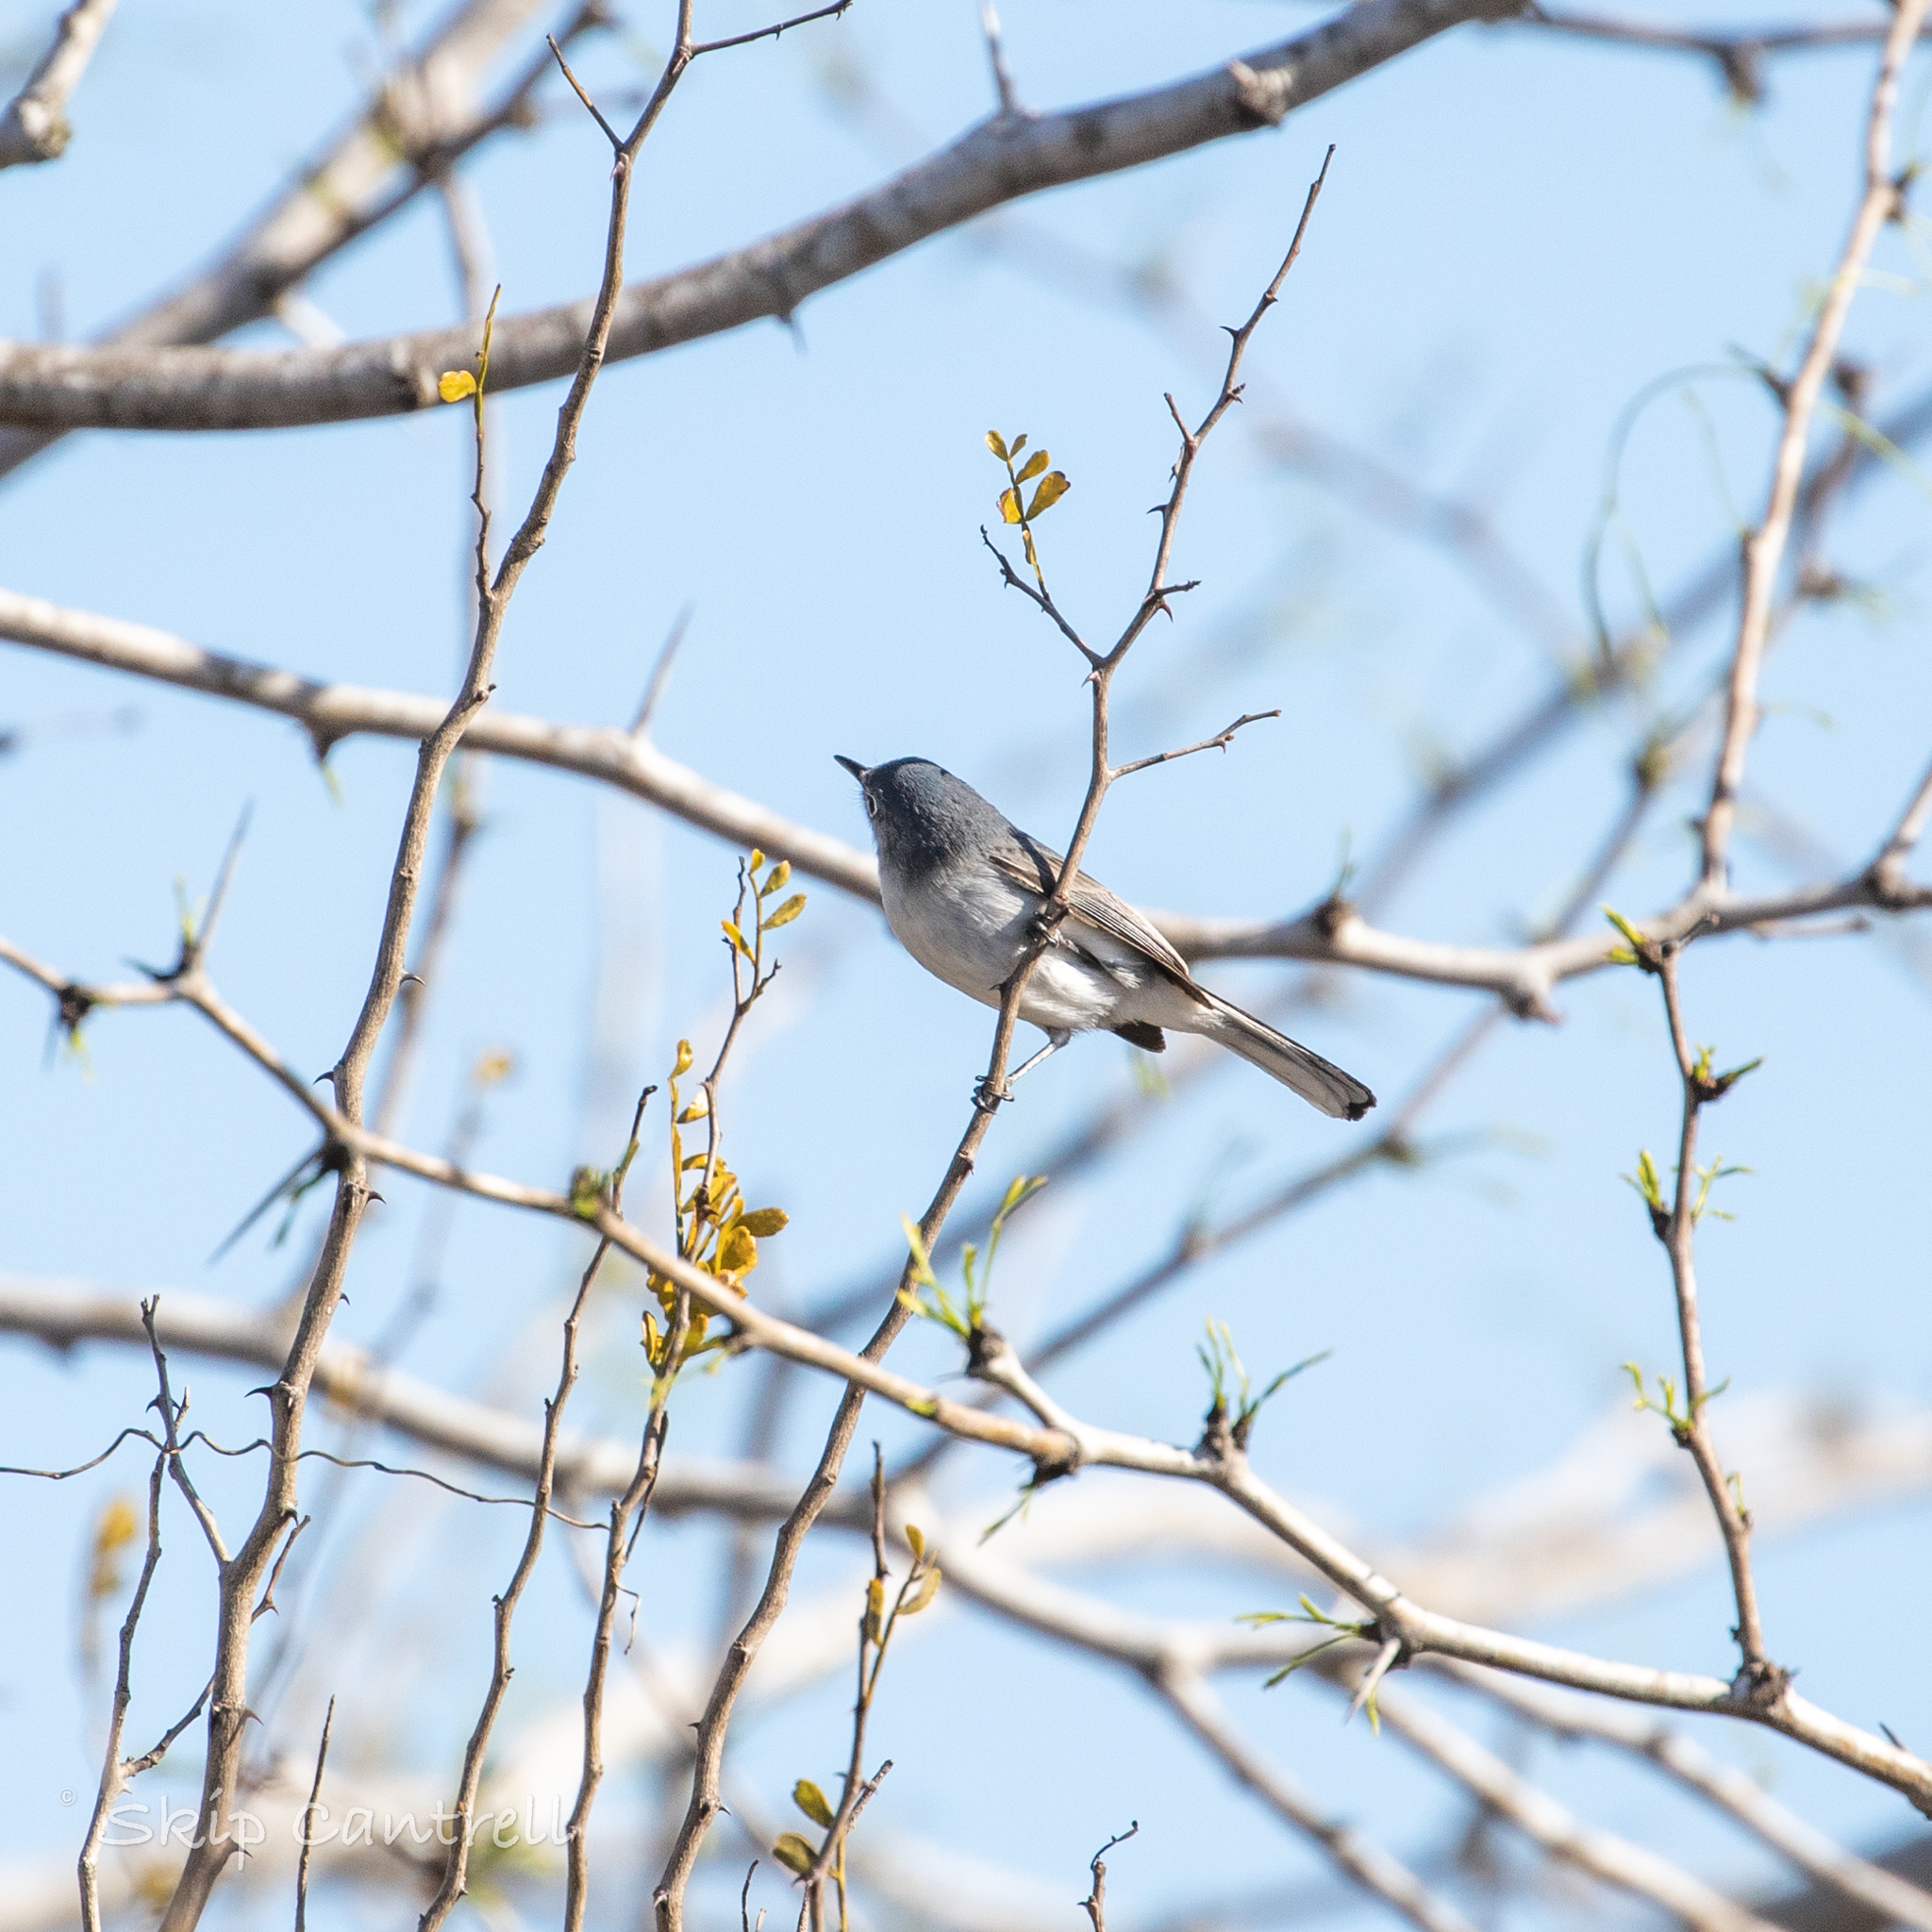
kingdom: Animalia
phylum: Chordata
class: Aves
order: Passeriformes
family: Polioptilidae
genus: Polioptila
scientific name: Polioptila caerulea
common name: Blue-gray gnatcatcher
